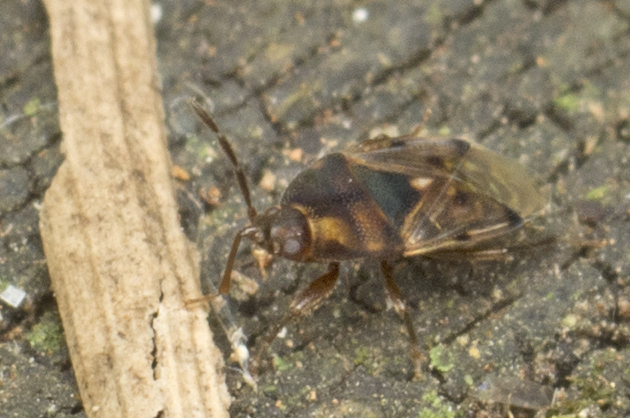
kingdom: Animalia
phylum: Arthropoda
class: Insecta
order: Hemiptera
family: Rhyparochromidae
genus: Botocudo
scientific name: Botocudo ornatulus
